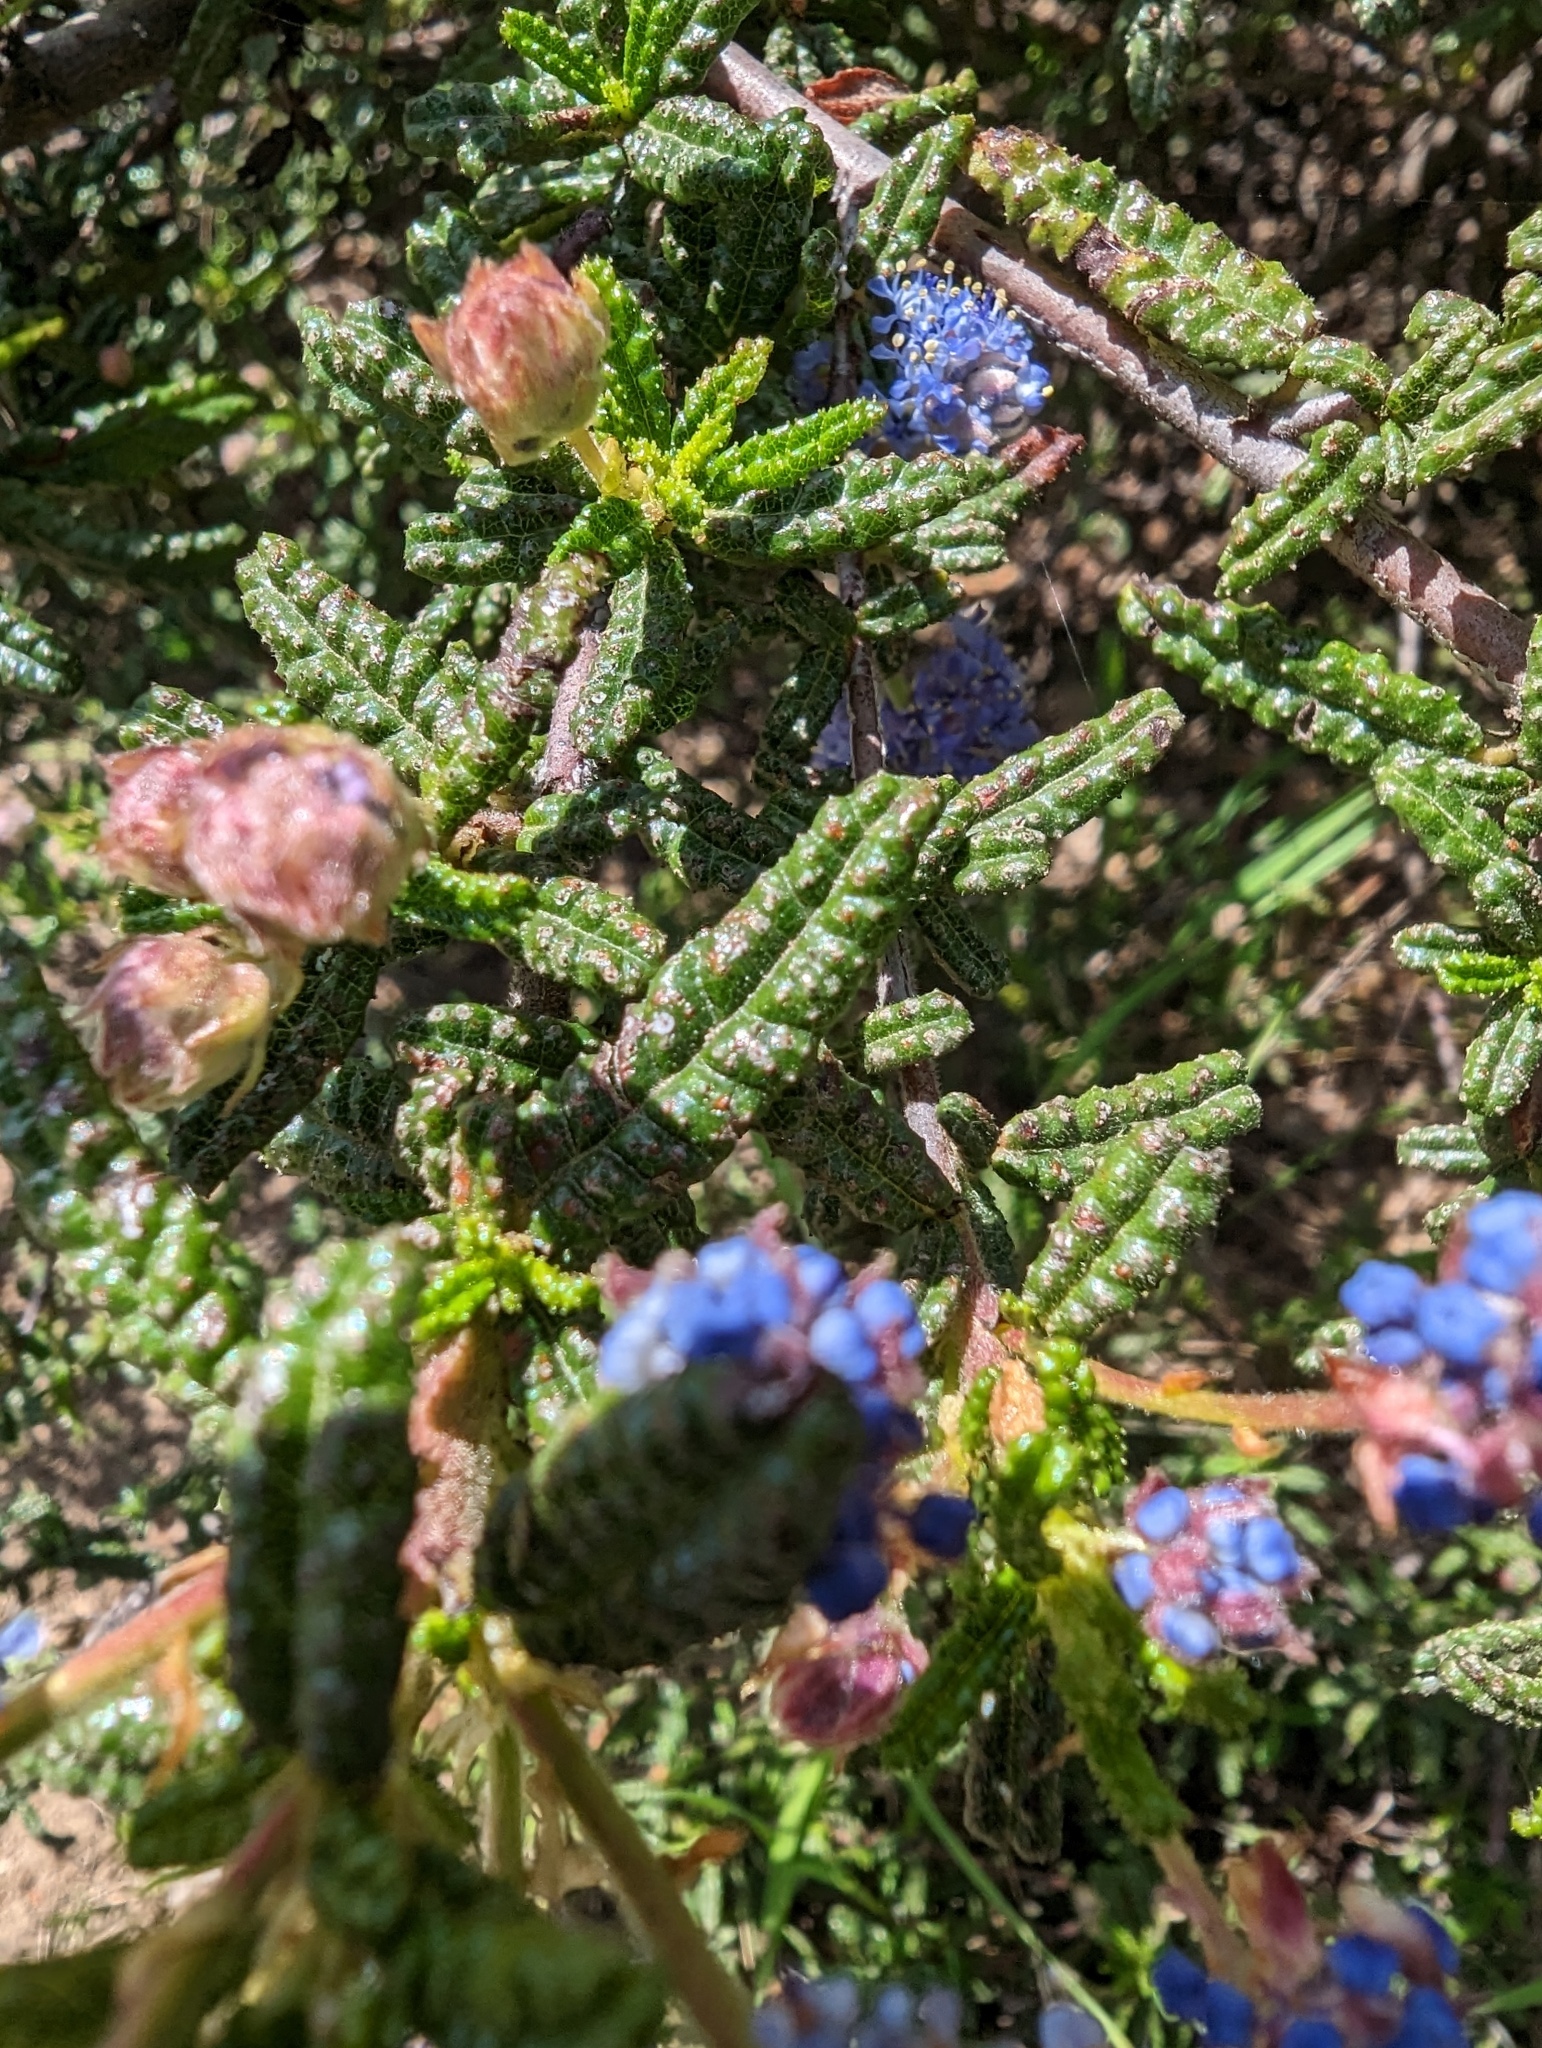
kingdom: Plantae
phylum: Tracheophyta
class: Magnoliopsida
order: Rosales
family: Rhamnaceae
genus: Ceanothus
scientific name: Ceanothus papillosus
